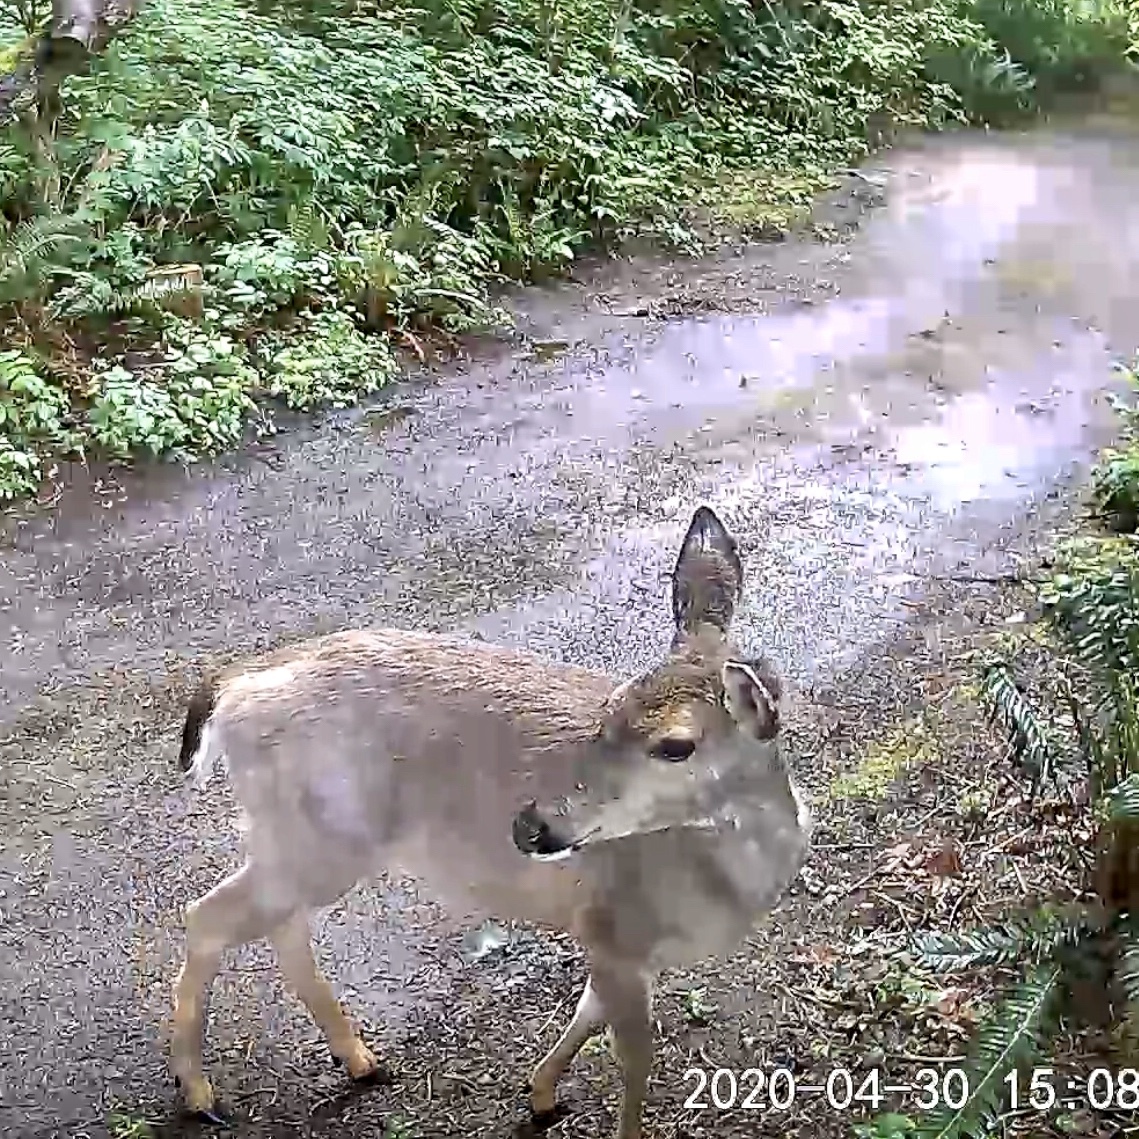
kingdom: Animalia
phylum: Chordata
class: Mammalia
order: Artiodactyla
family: Cervidae
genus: Odocoileus
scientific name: Odocoileus hemionus
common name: Mule deer
